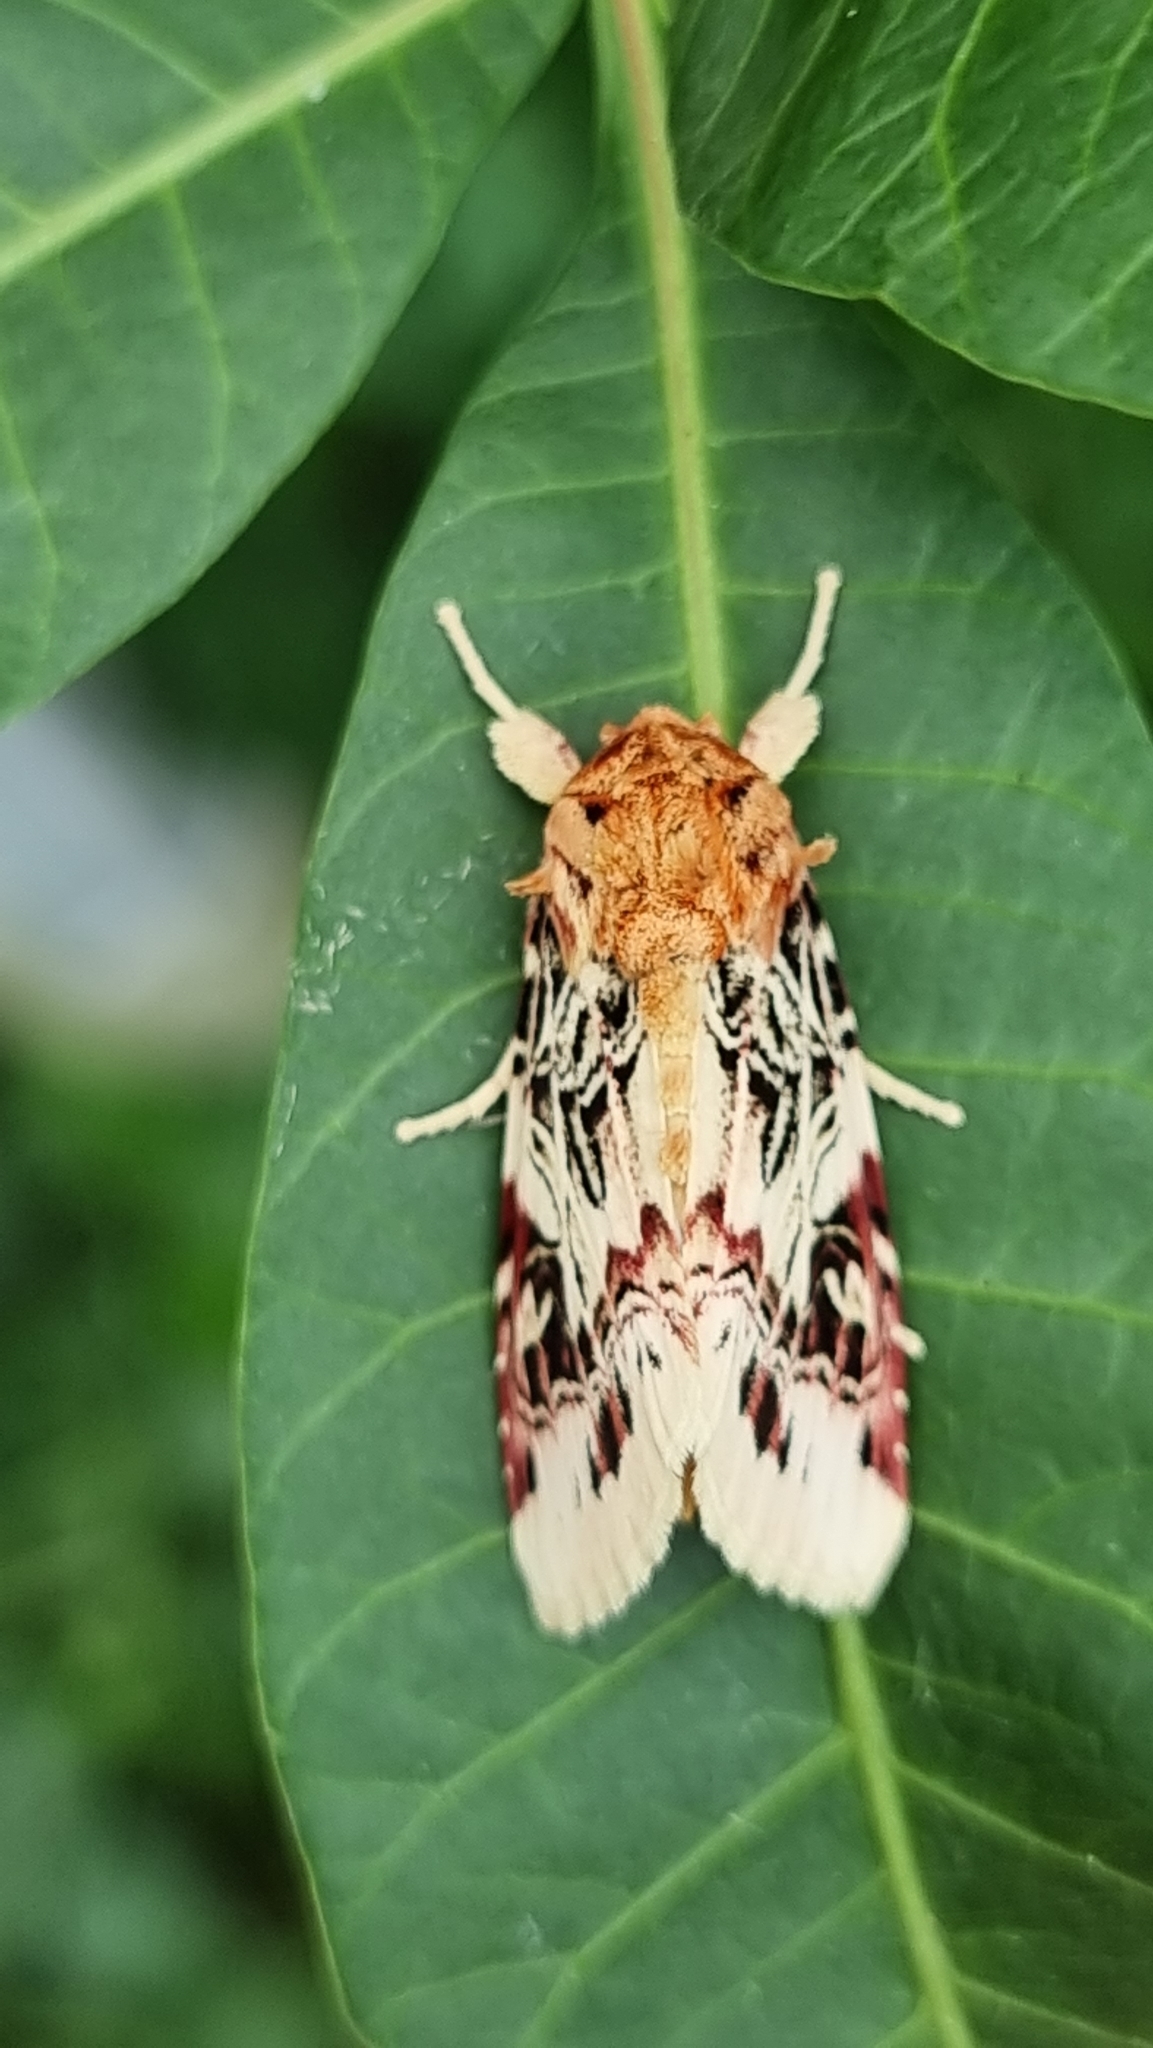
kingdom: Animalia
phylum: Arthropoda
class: Insecta
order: Lepidoptera
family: Noctuidae
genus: Spodoptera
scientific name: Spodoptera picta
